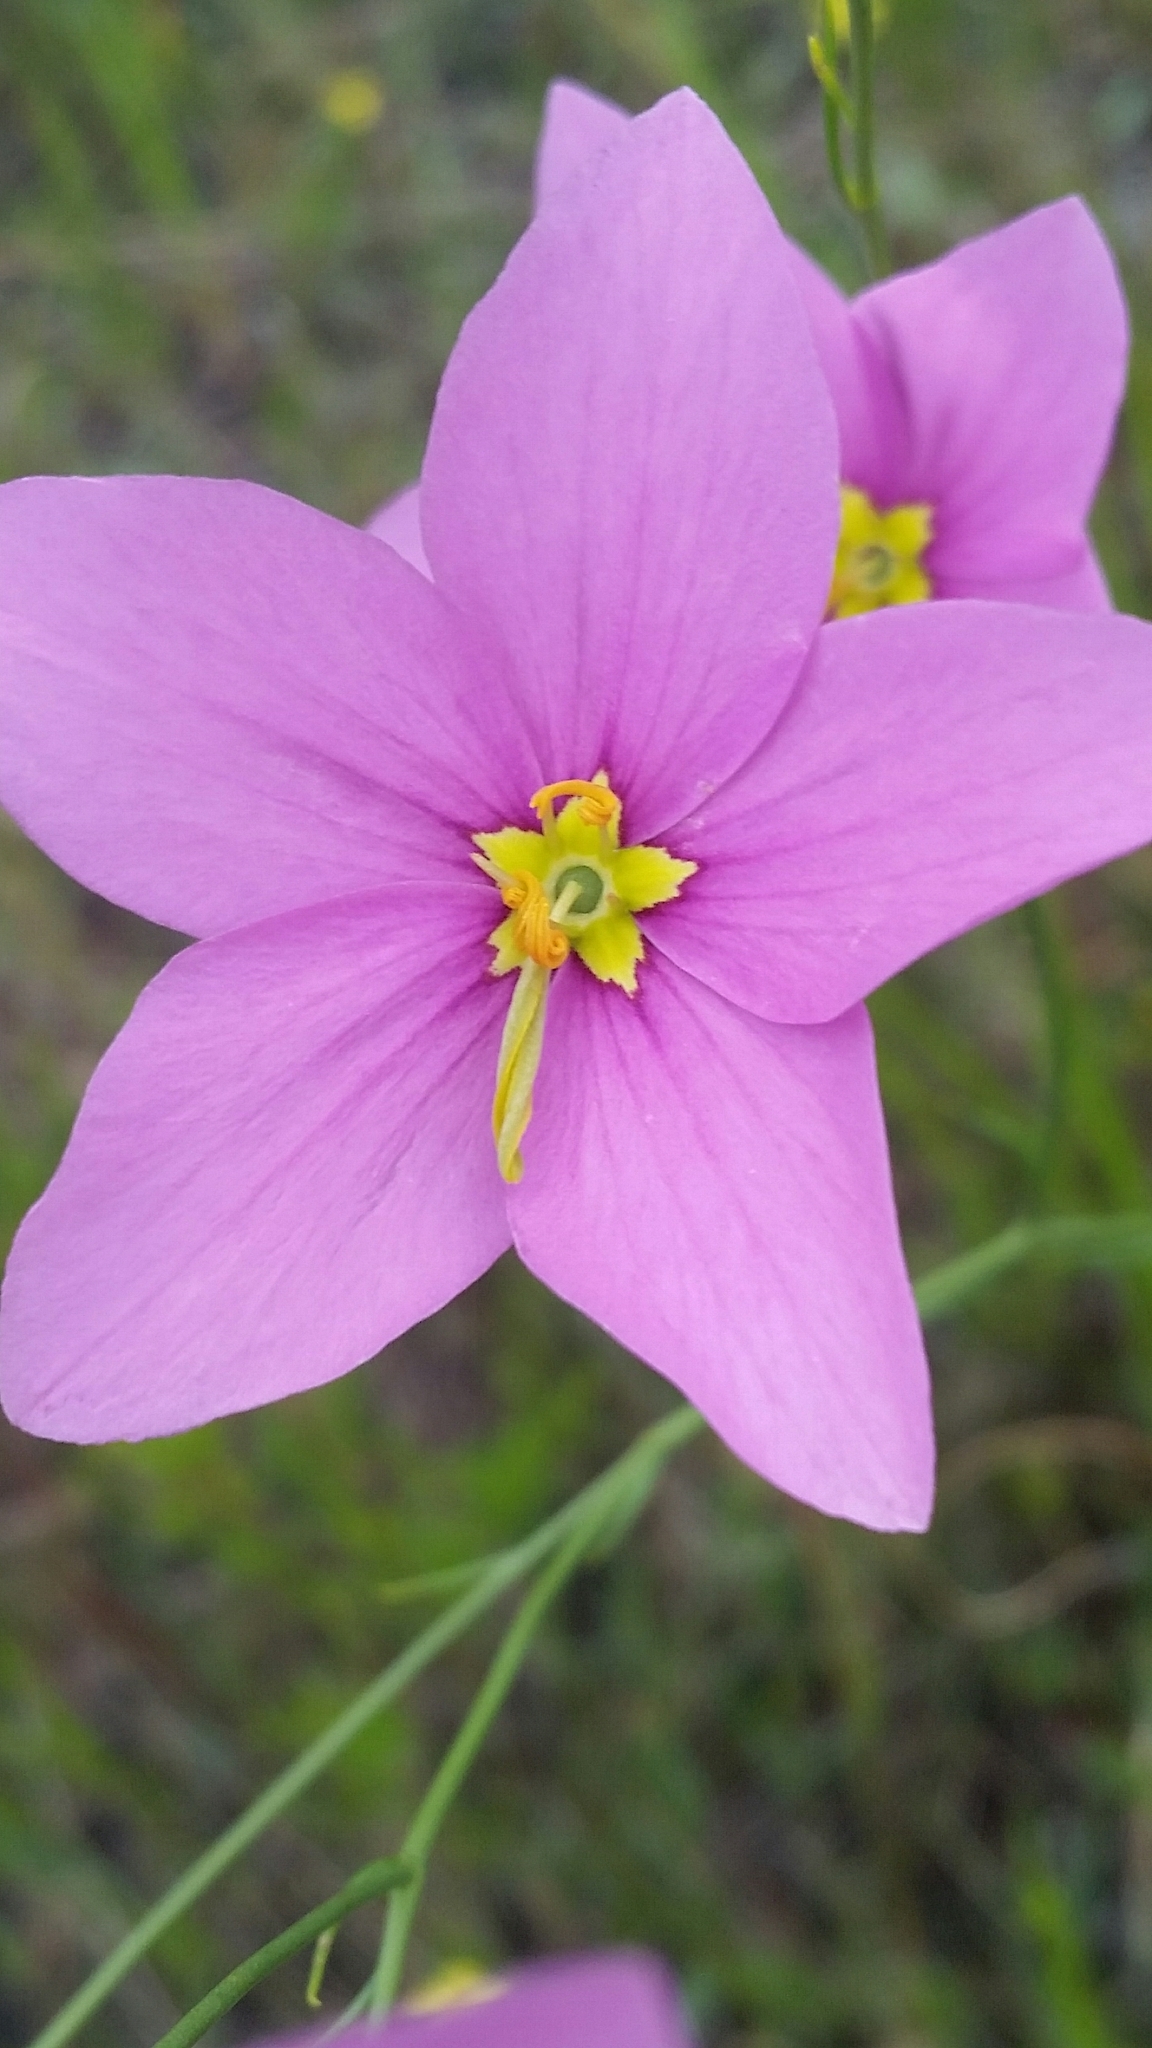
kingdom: Plantae
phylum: Tracheophyta
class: Magnoliopsida
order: Gentianales
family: Gentianaceae
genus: Sabatia
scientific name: Sabatia grandiflora
